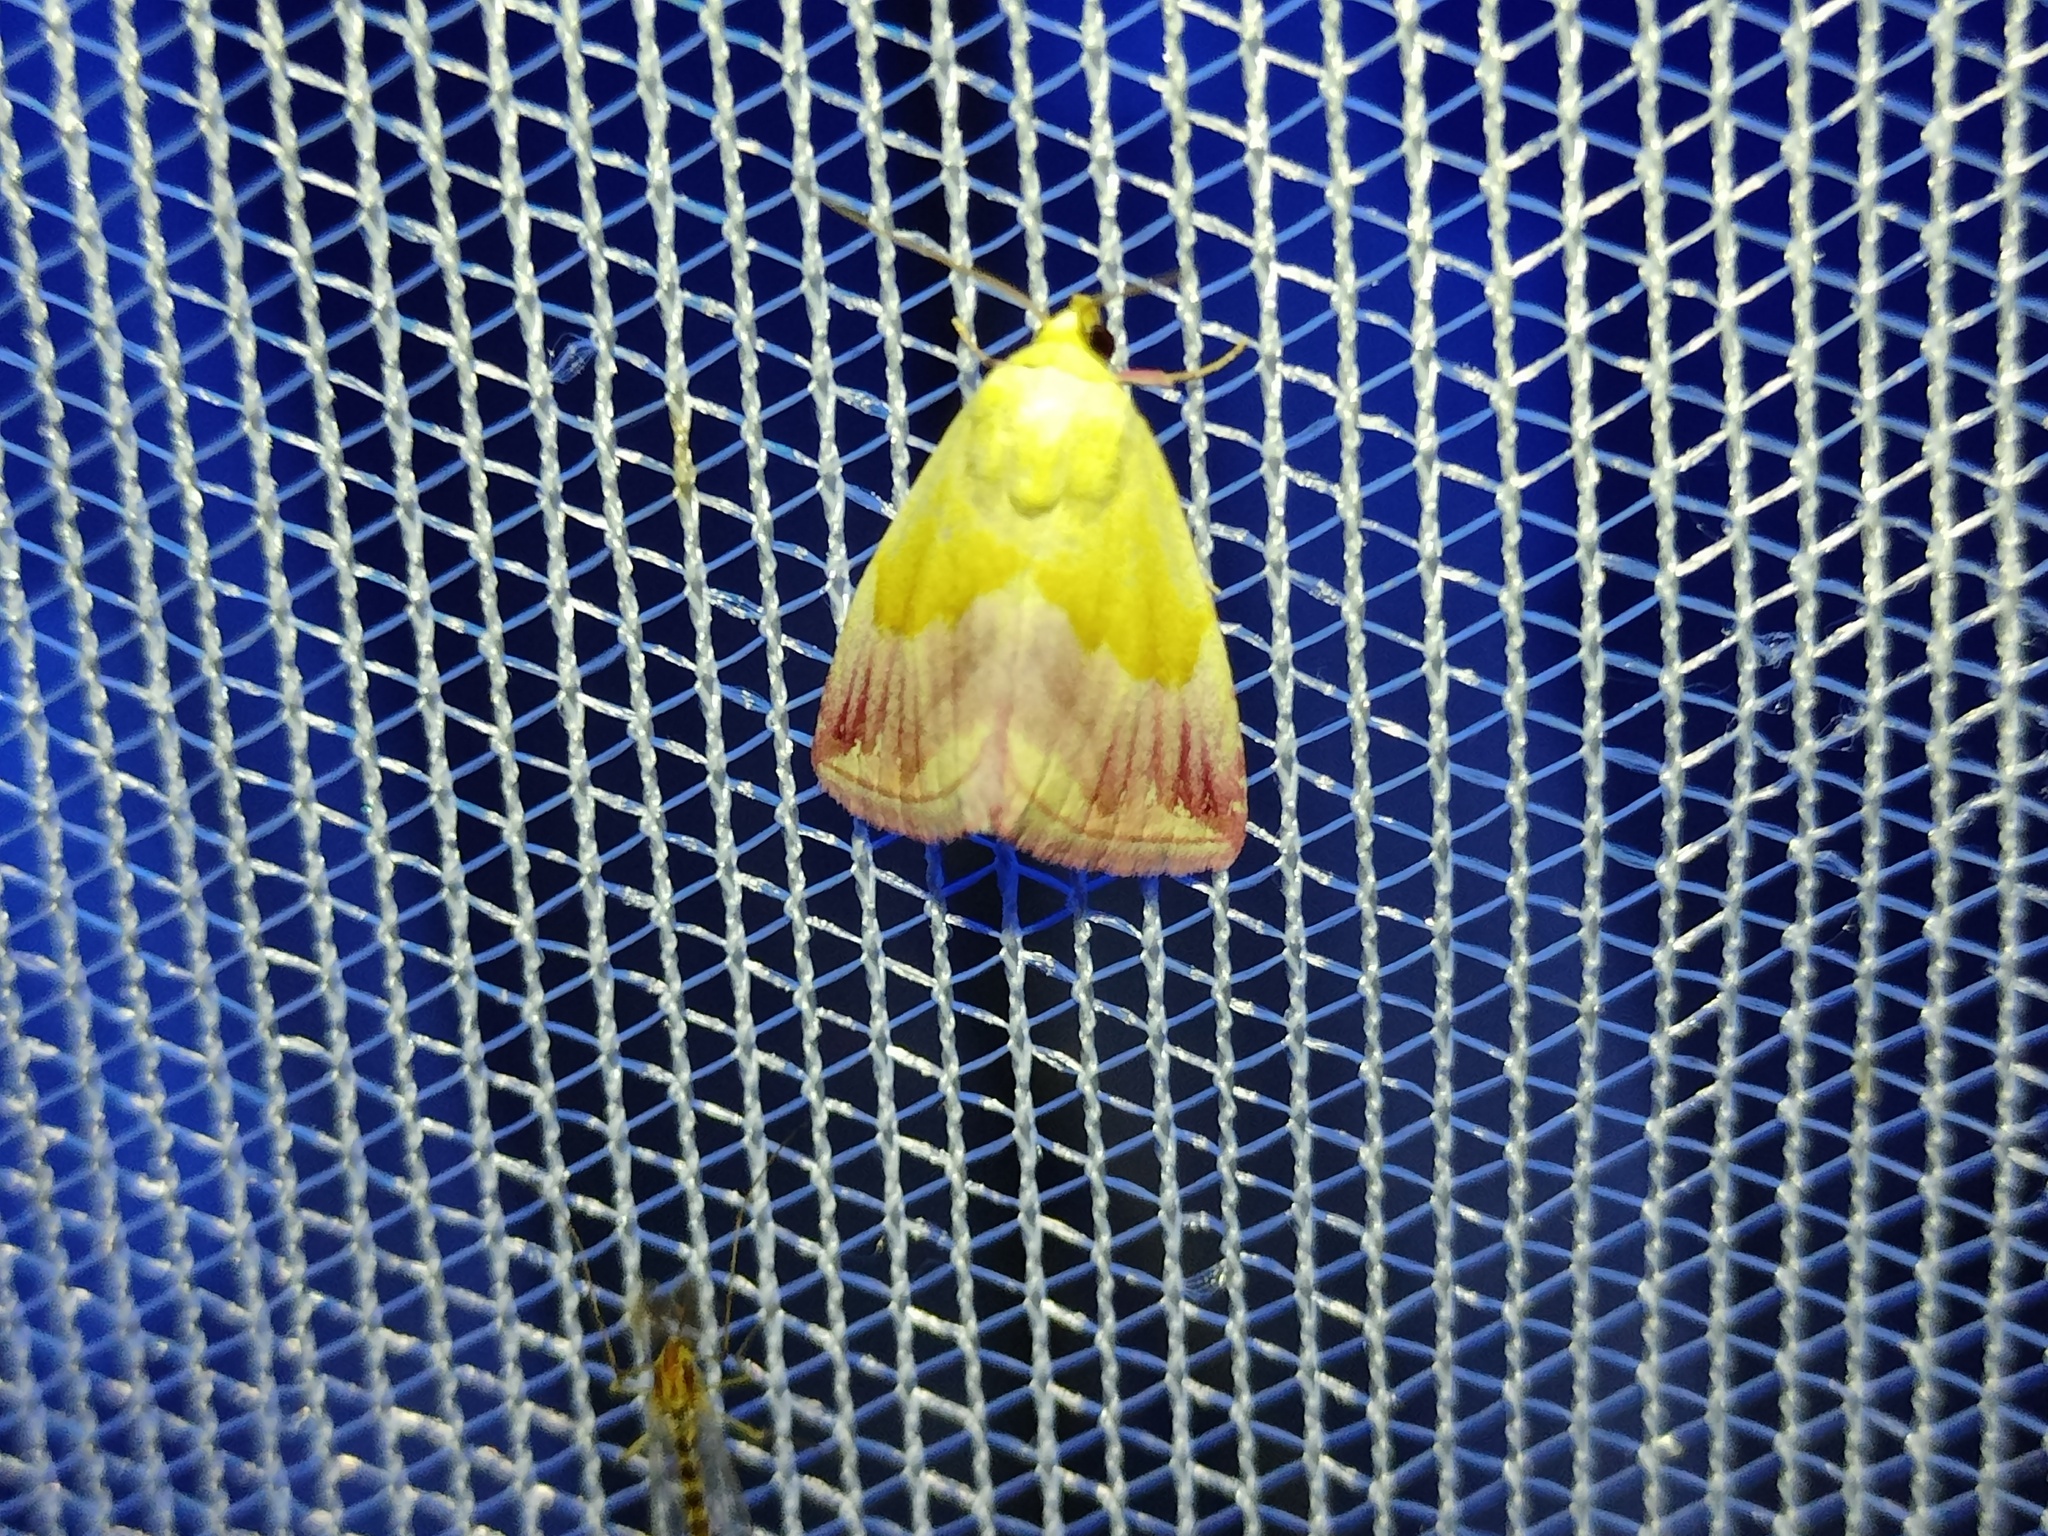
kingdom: Animalia
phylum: Arthropoda
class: Insecta
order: Lepidoptera
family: Noctuidae
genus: Eublemma
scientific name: Eublemma purpurina
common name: Beautiful marbled
